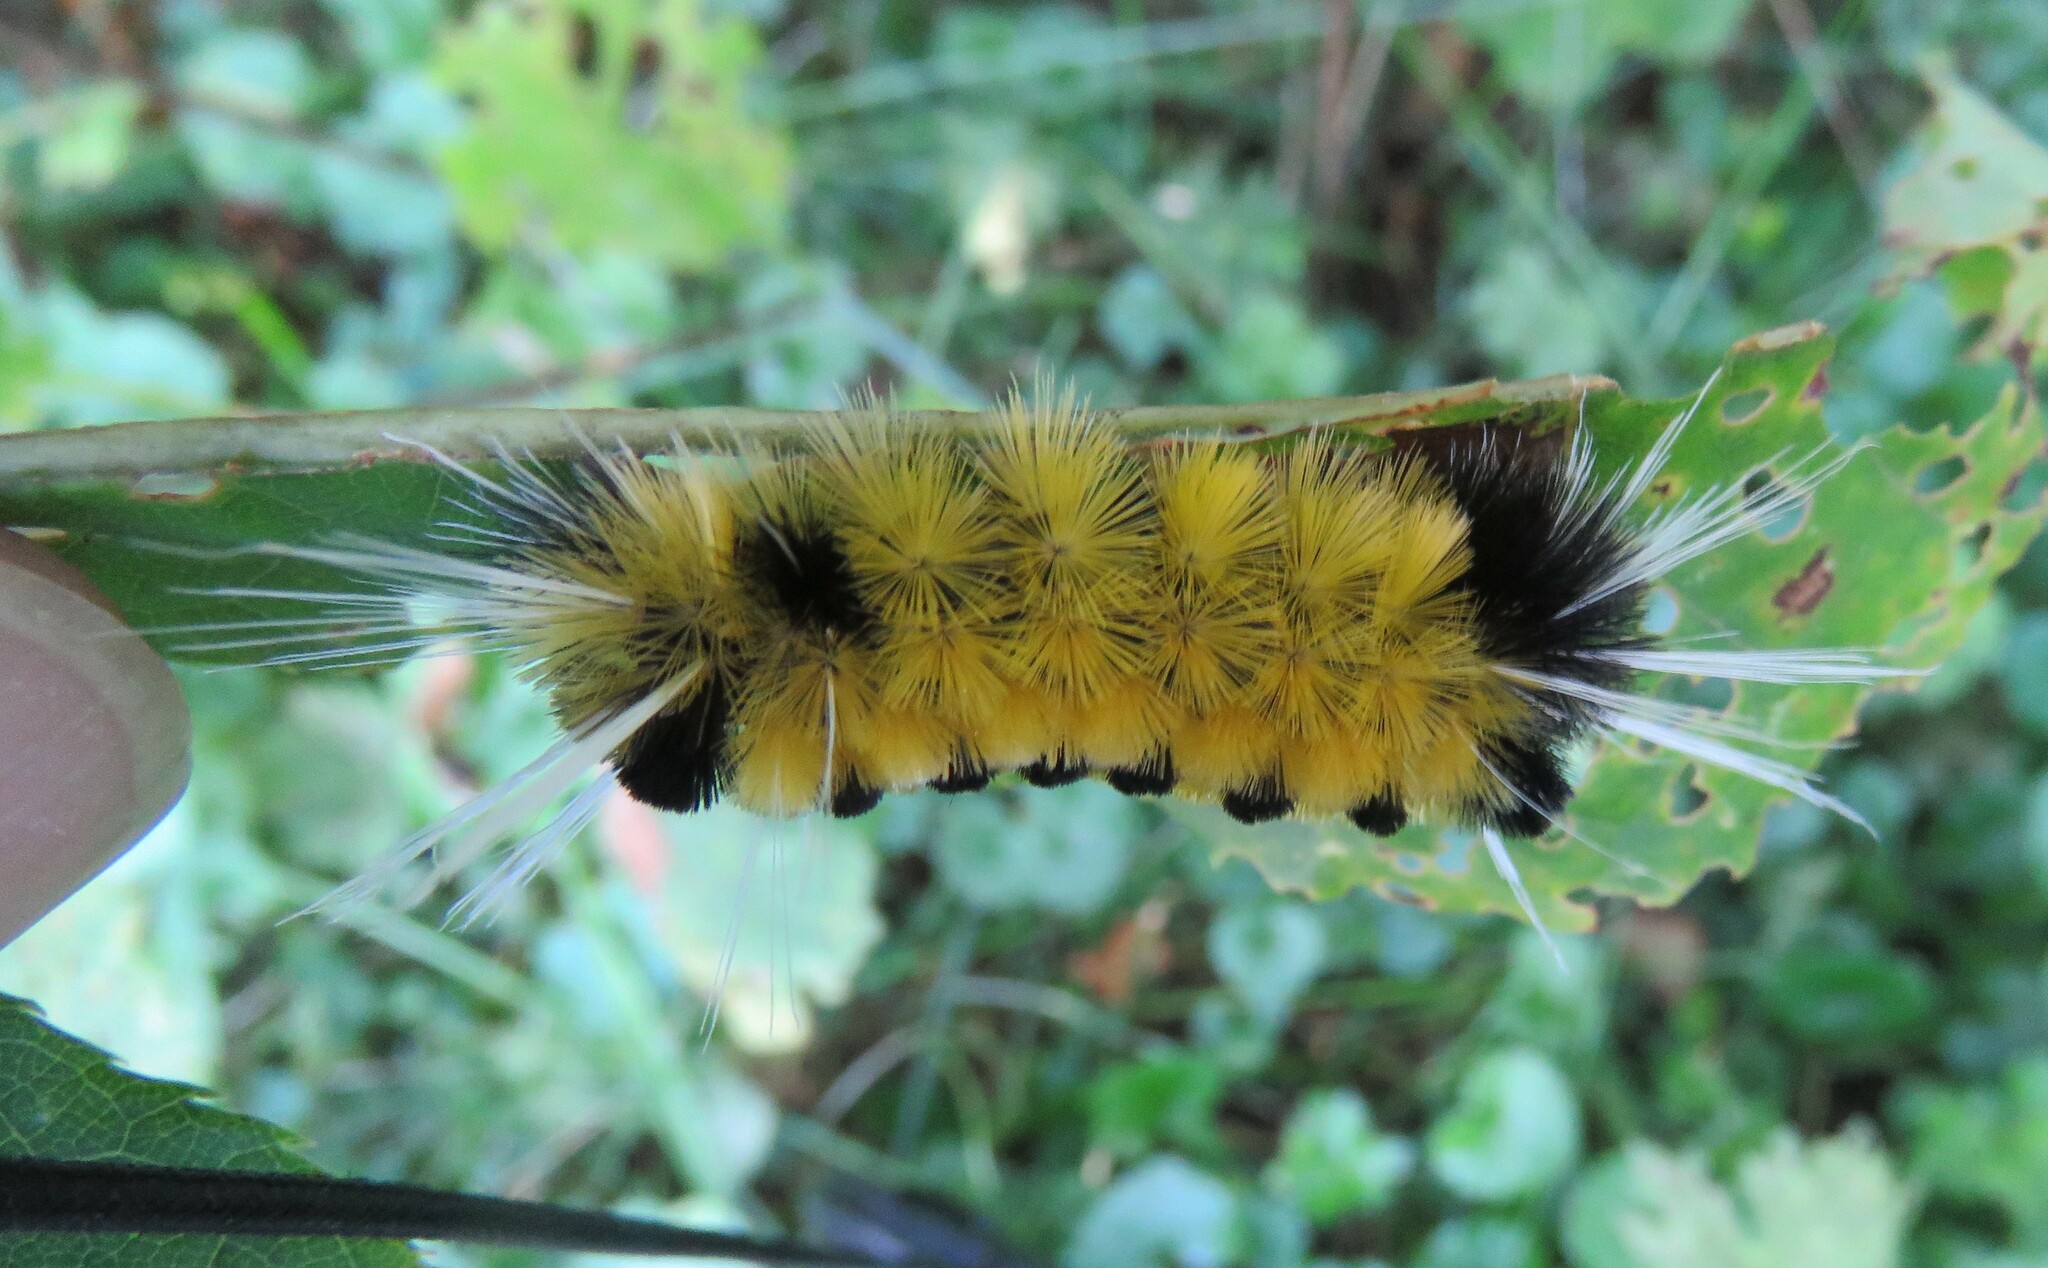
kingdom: Animalia
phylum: Arthropoda
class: Insecta
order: Lepidoptera
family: Erebidae
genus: Lophocampa
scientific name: Lophocampa maculata
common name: Spotted tussock moth
